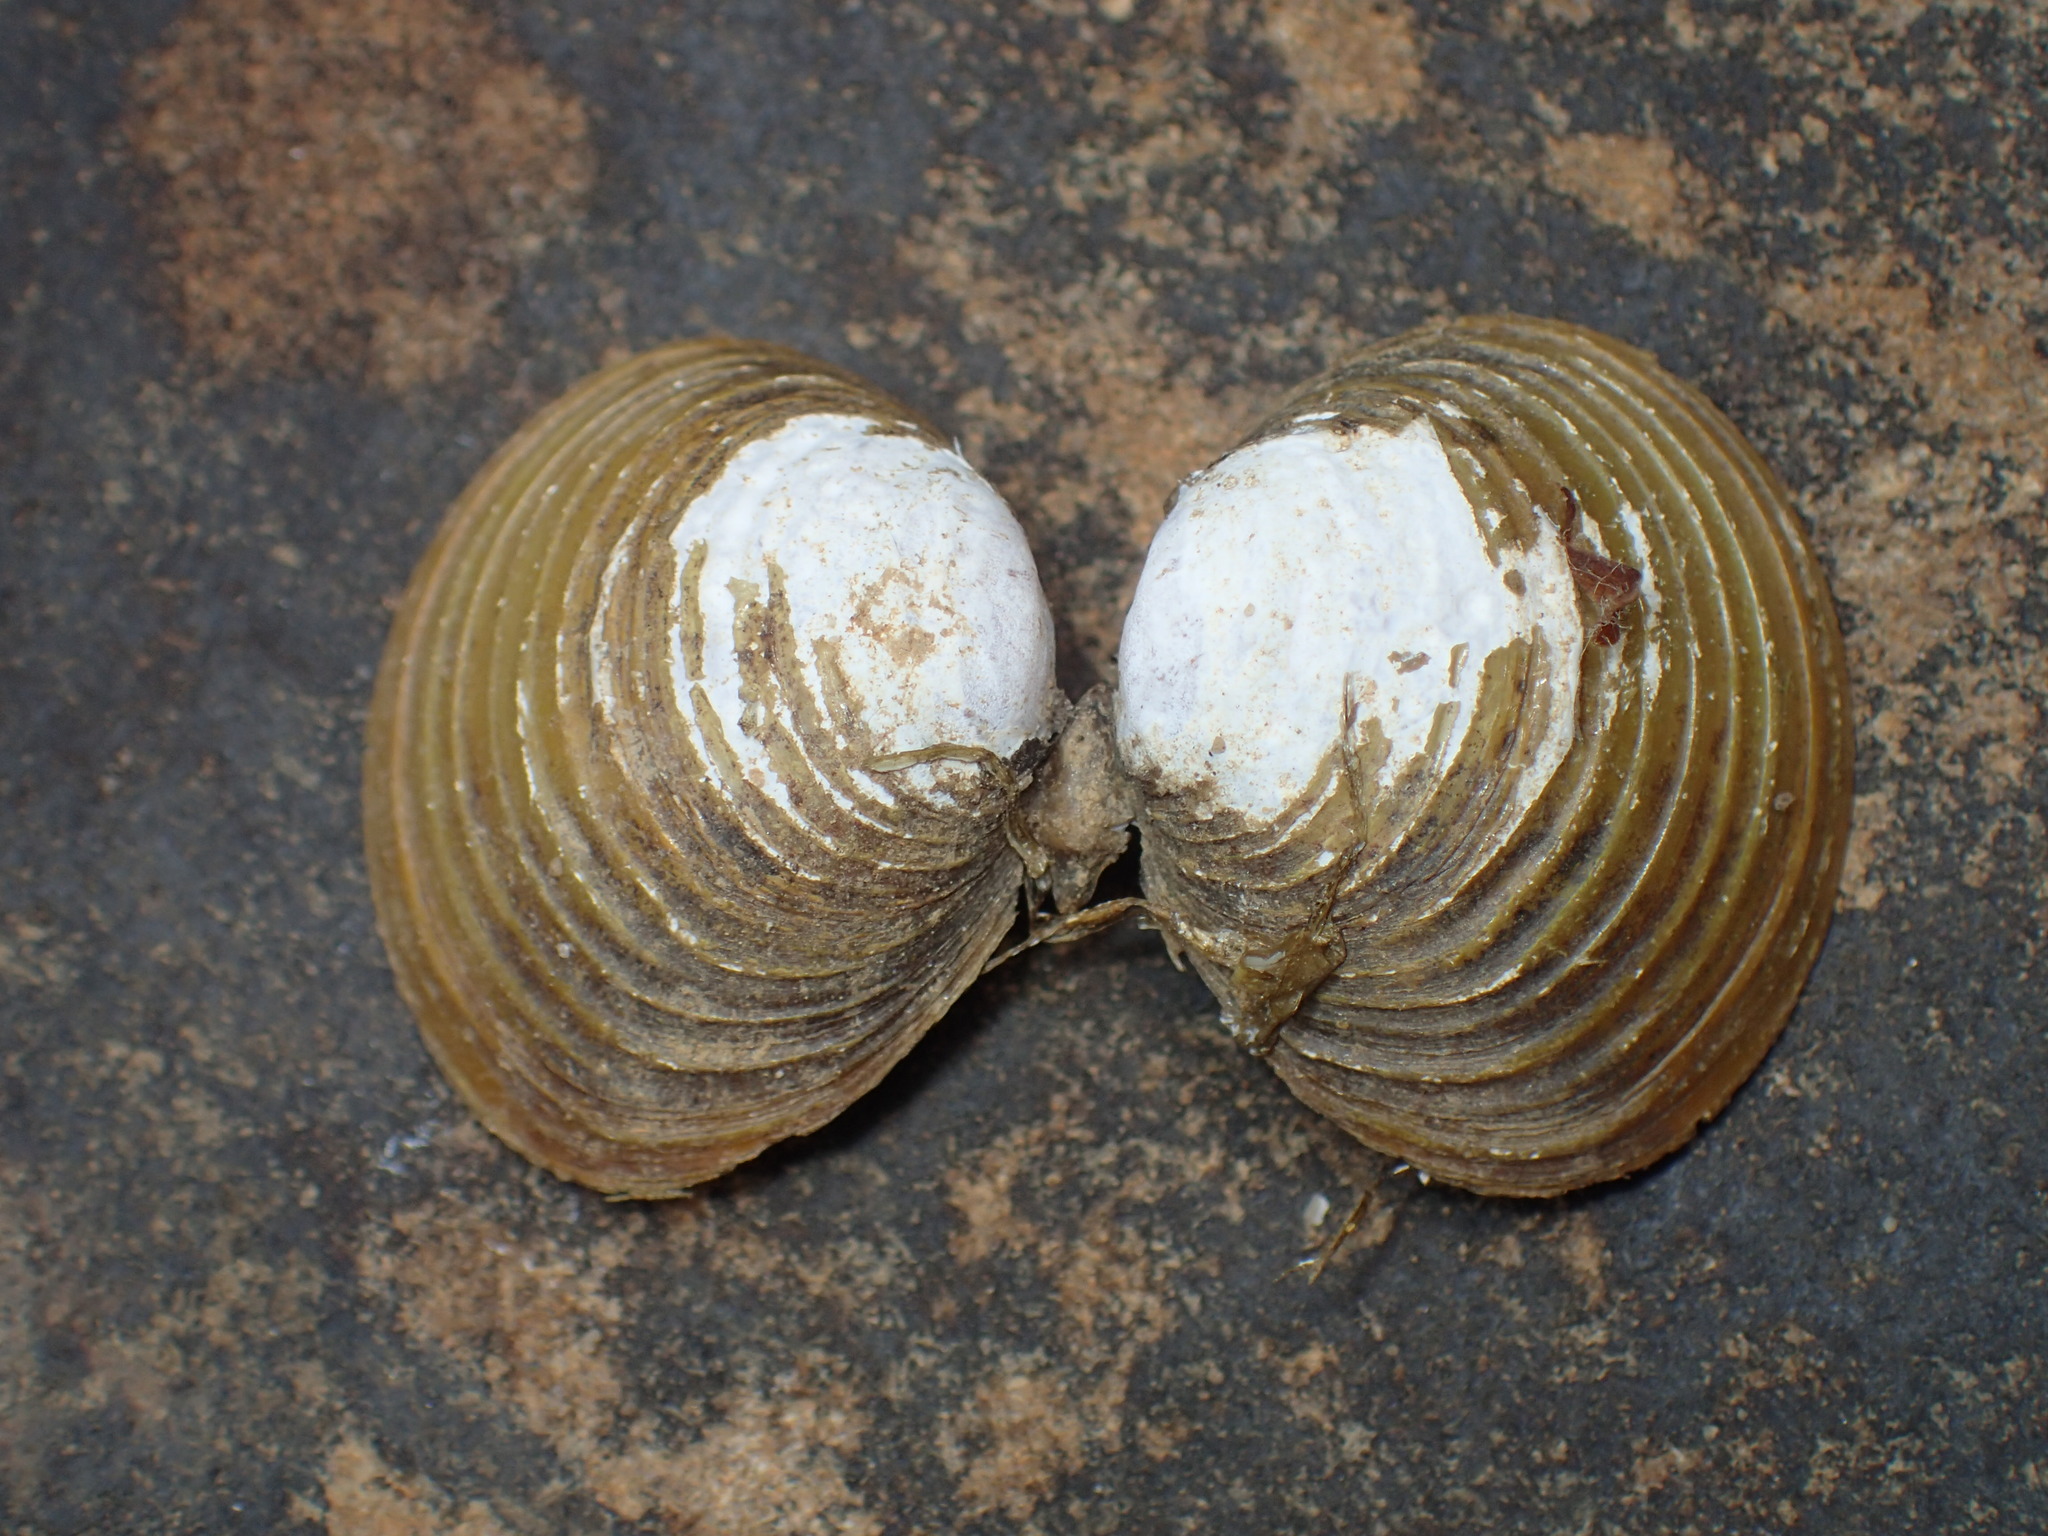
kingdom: Animalia
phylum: Mollusca
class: Bivalvia
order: Venerida
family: Cyrenidae
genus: Corbicula
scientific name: Corbicula fluminea
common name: Asian clam
